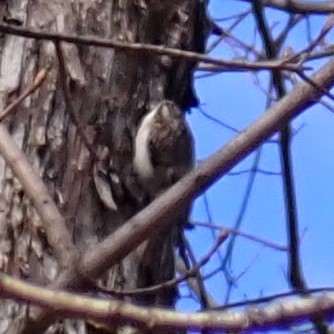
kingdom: Animalia
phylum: Chordata
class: Aves
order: Passeriformes
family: Certhiidae
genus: Certhia
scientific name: Certhia americana
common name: Brown creeper
